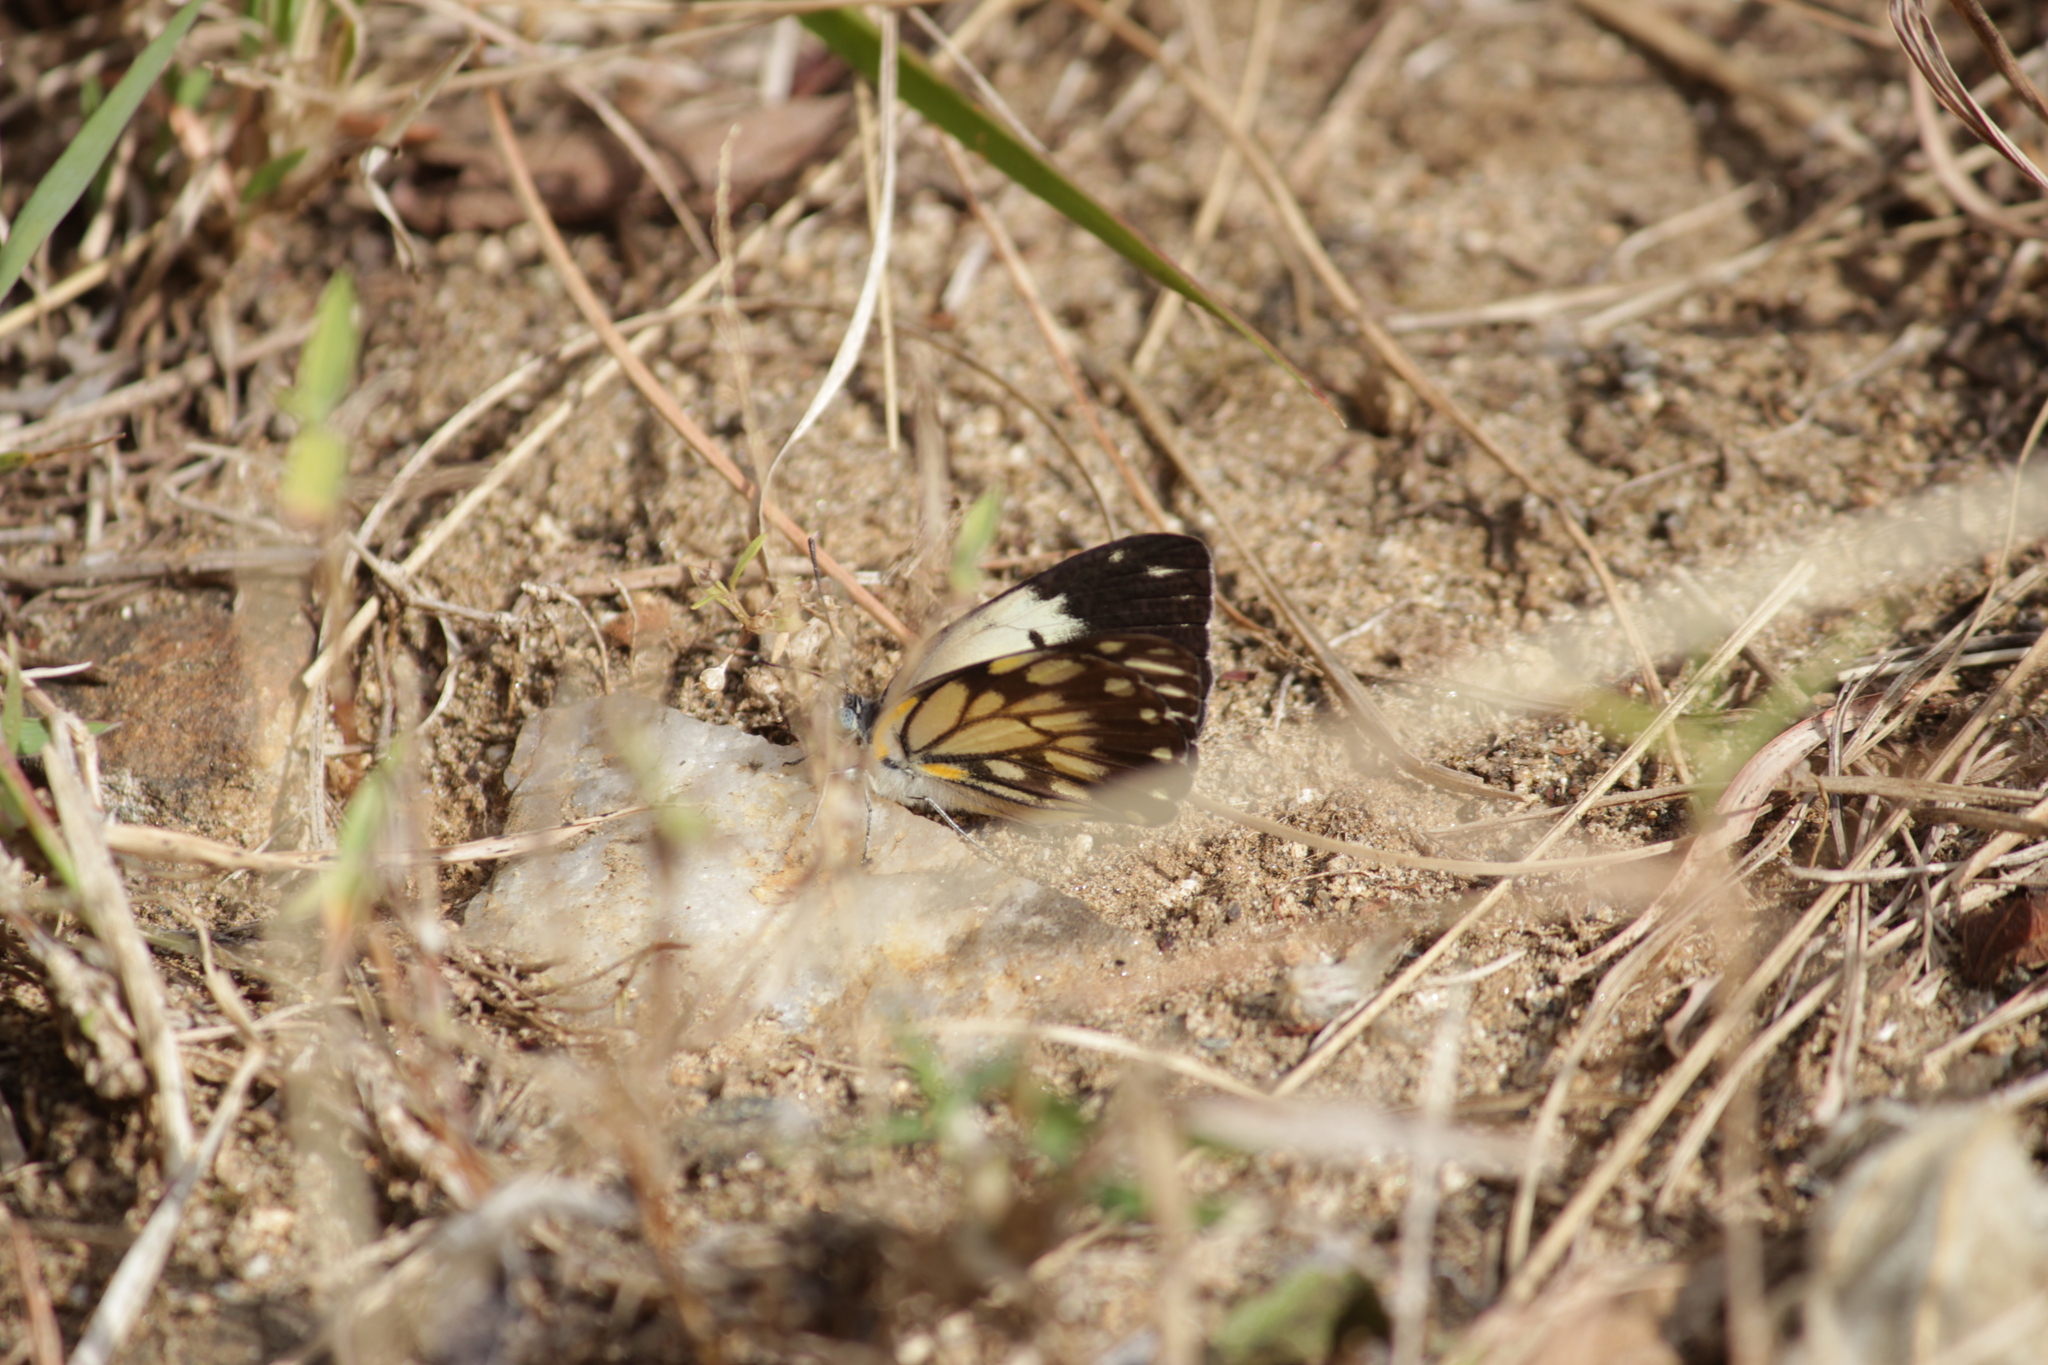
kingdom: Animalia
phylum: Arthropoda
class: Insecta
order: Lepidoptera
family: Pieridae
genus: Belenois
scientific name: Belenois creona
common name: African caper white
